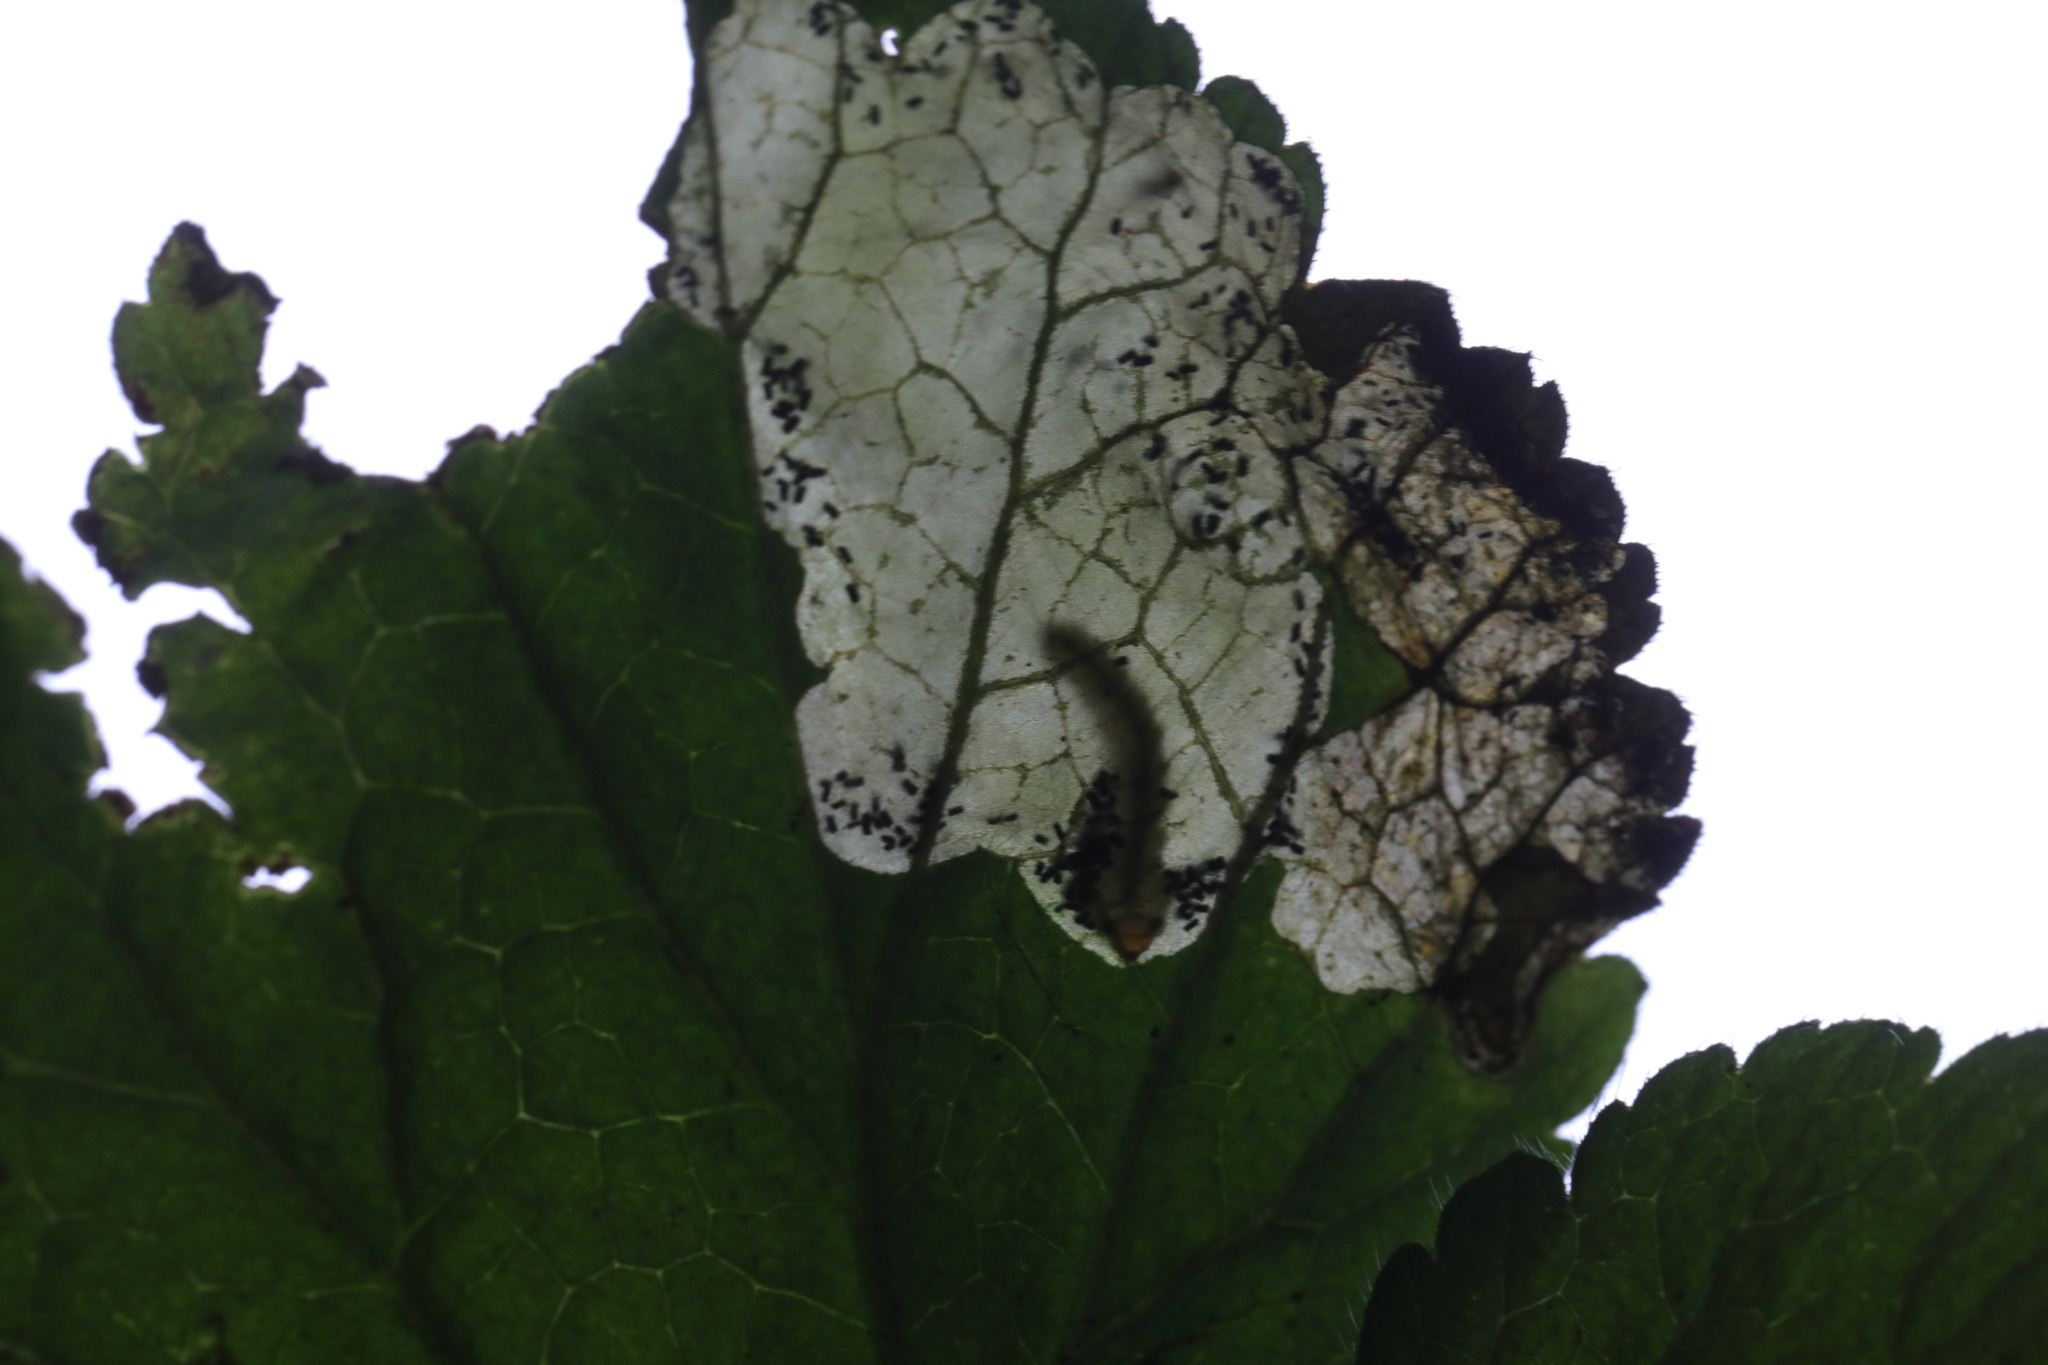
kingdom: Animalia
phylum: Arthropoda
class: Insecta
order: Hymenoptera
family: Tenthredinidae
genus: Metallus
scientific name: Metallus lanceolatus
